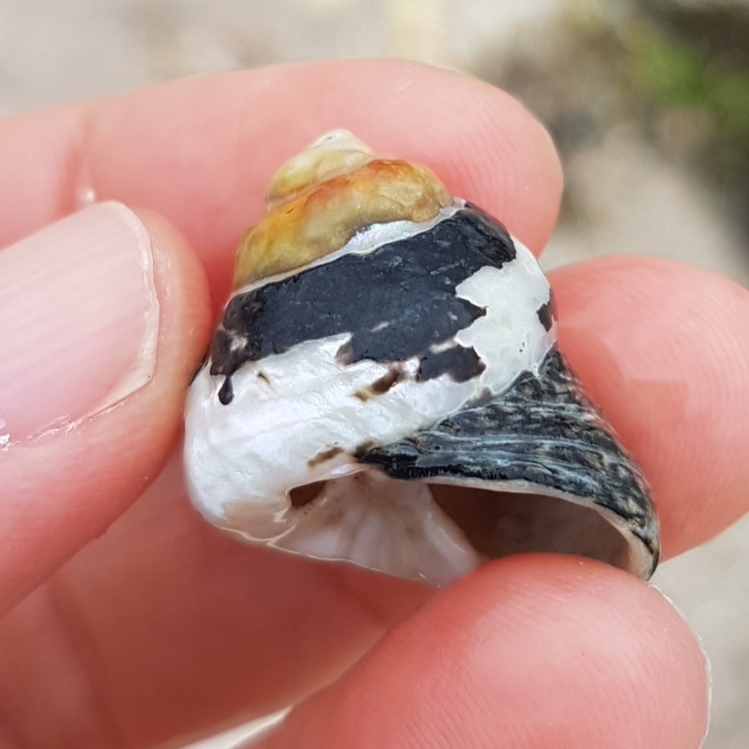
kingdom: Animalia
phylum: Mollusca
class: Gastropoda
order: Trochida
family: Trochidae
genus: Phorcus
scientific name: Phorcus lineatus
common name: Toothed top shell
